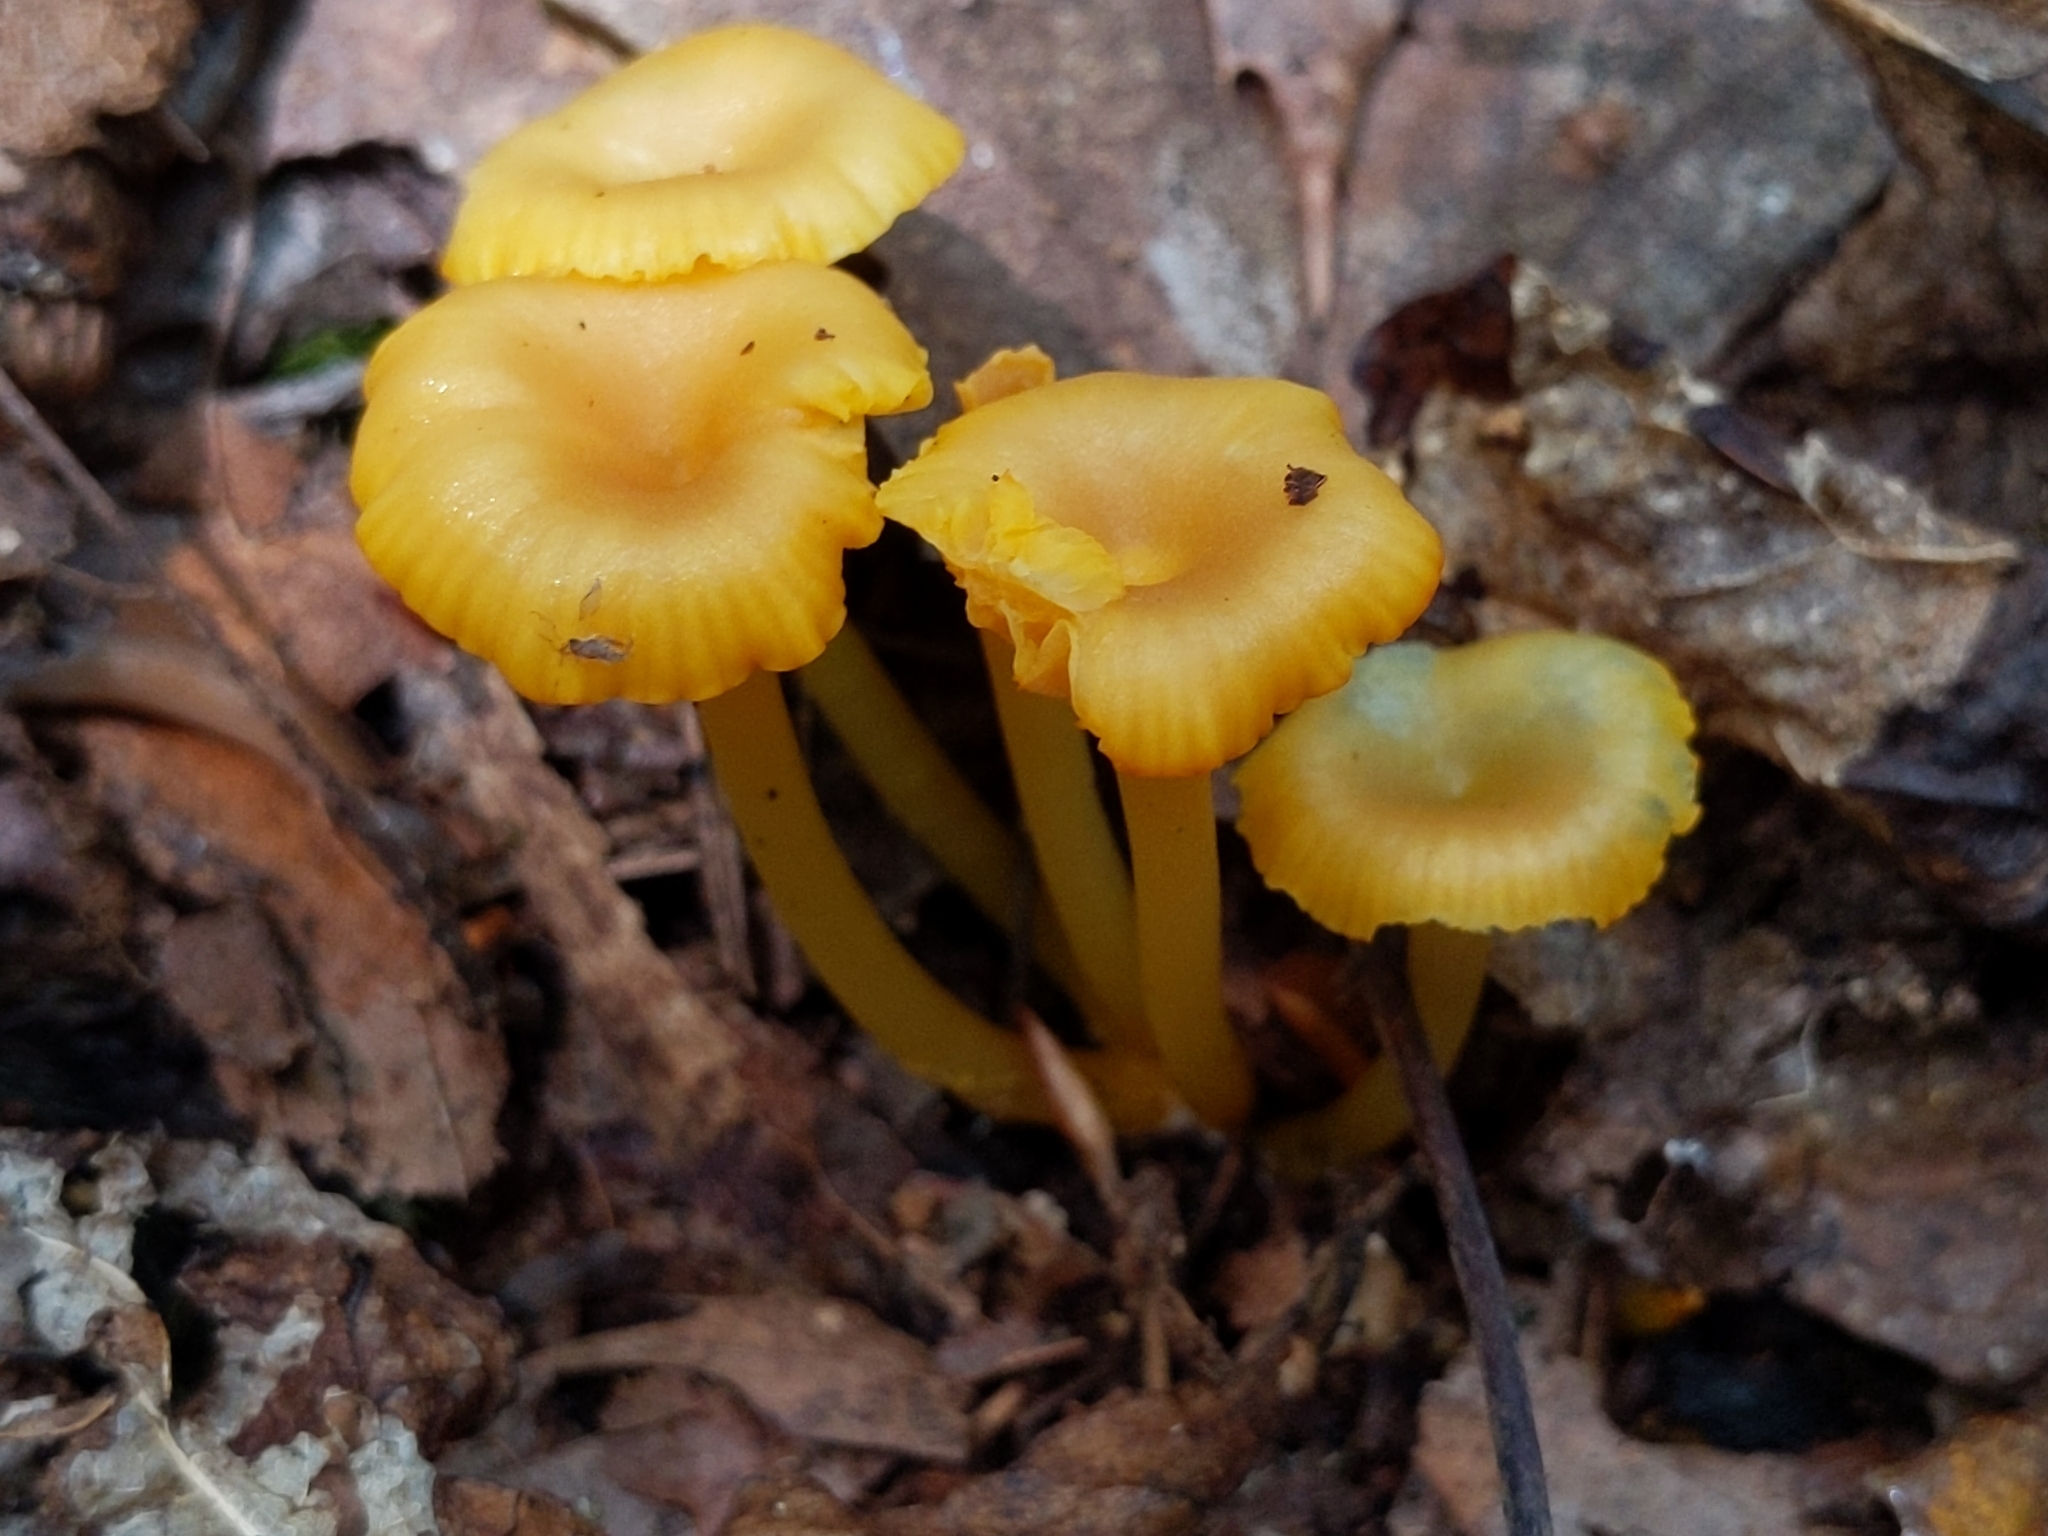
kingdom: Fungi
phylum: Basidiomycota
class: Agaricomycetes
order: Agaricales
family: Hygrophoraceae
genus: Gloioxanthomyces
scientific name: Gloioxanthomyces nitidus
